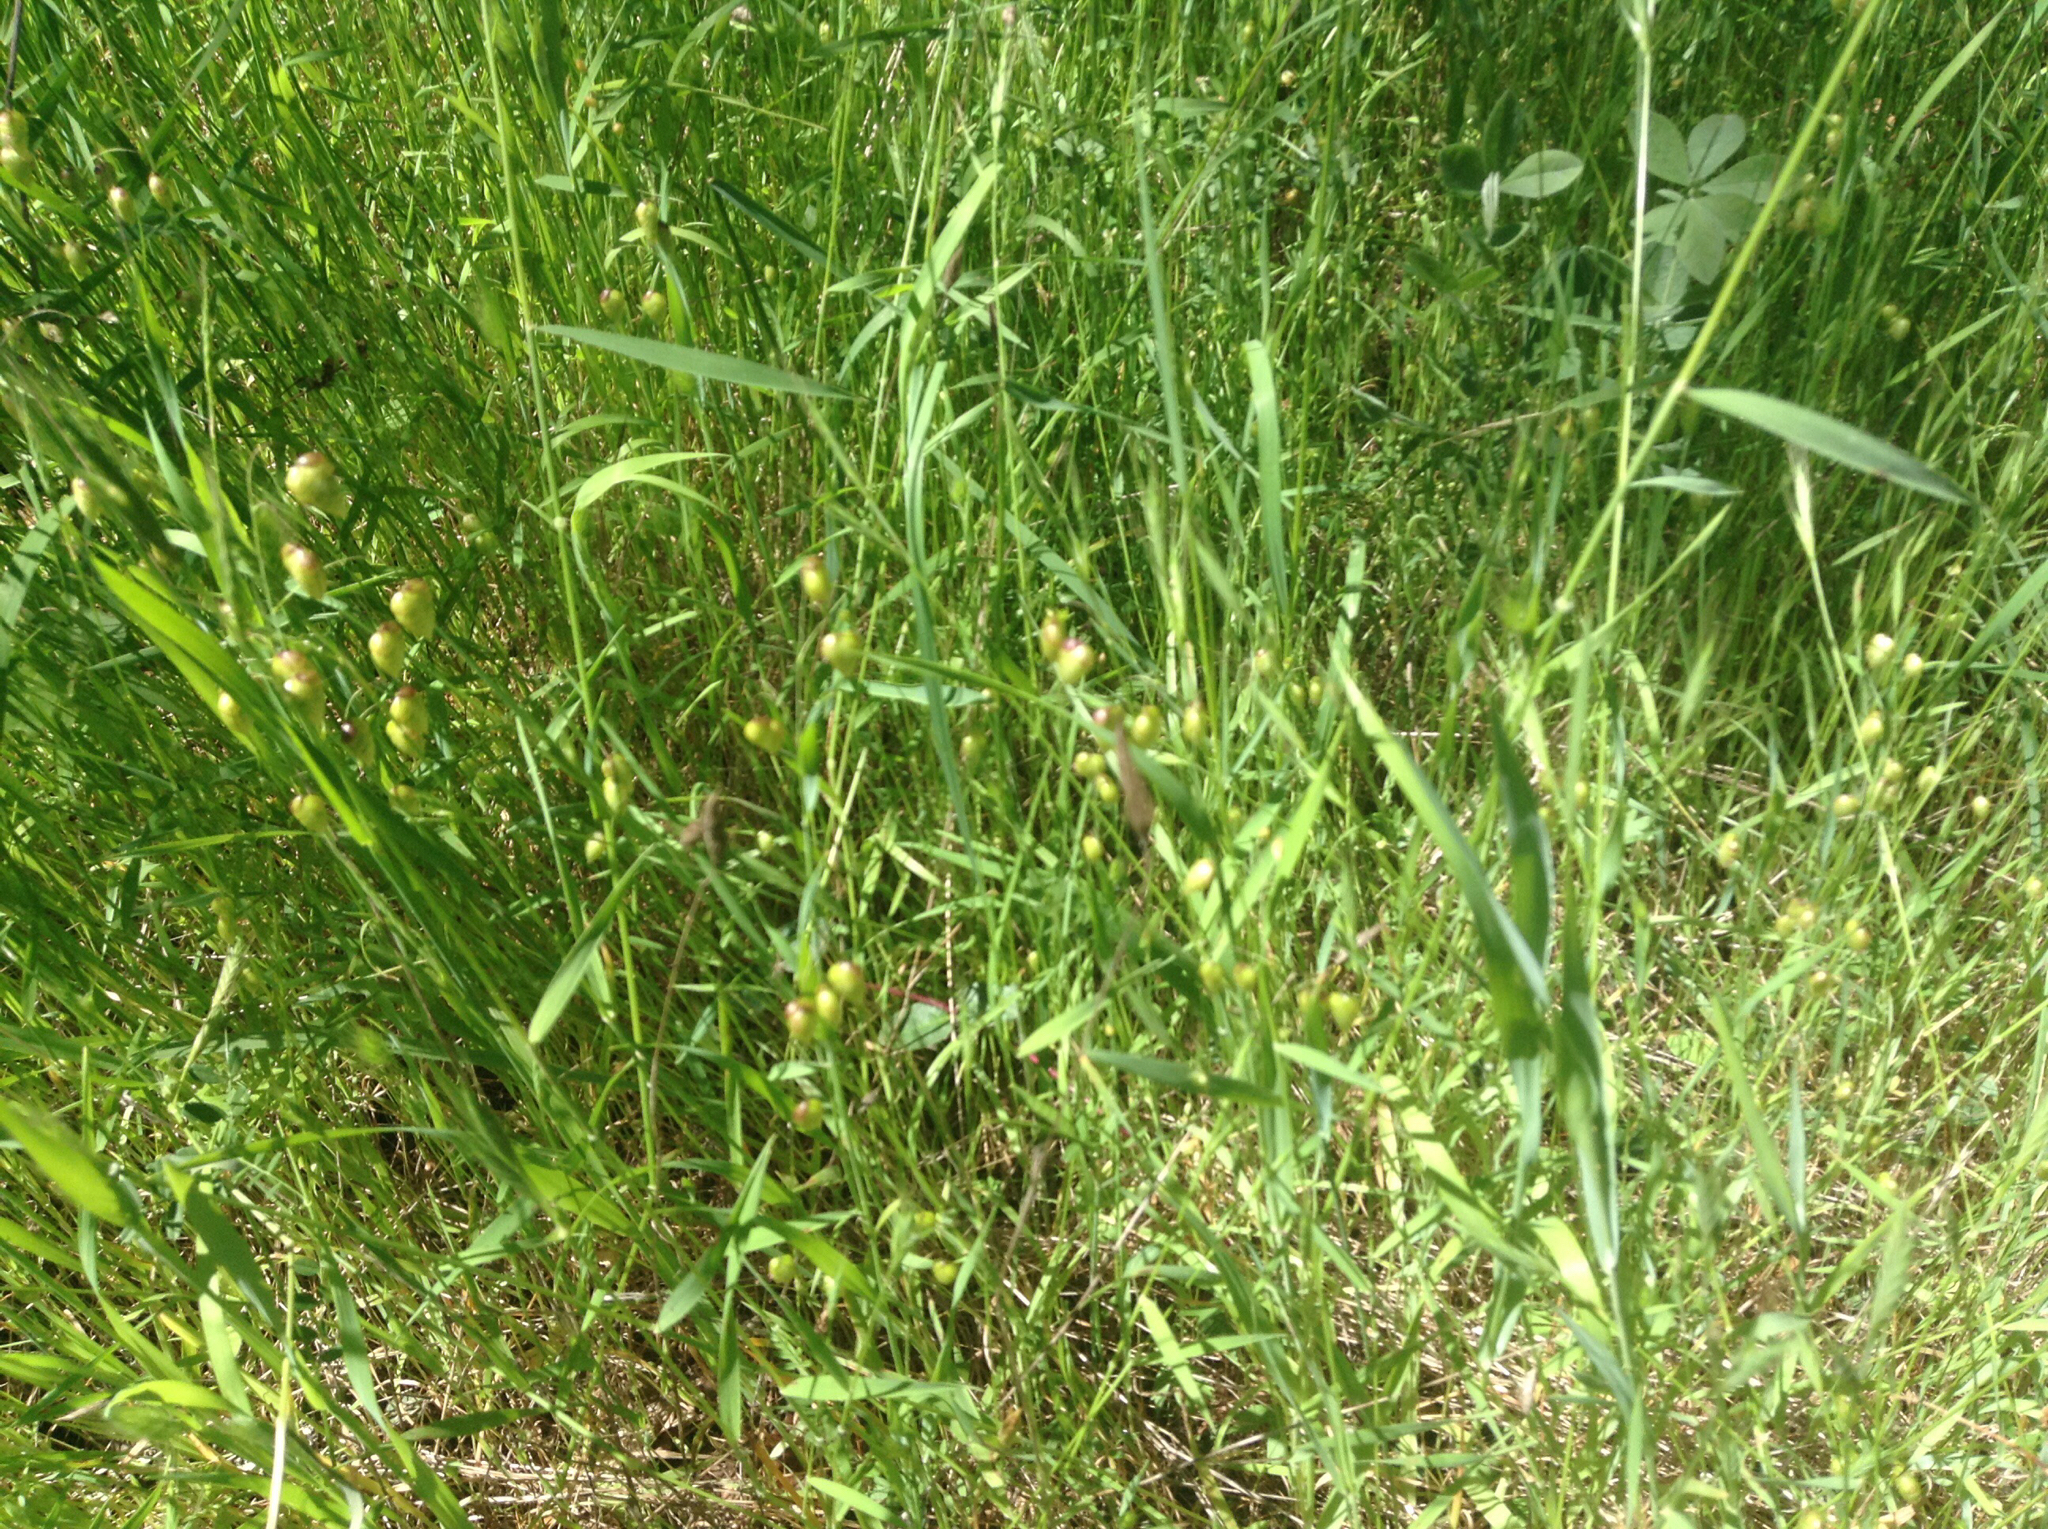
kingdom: Plantae
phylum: Tracheophyta
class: Liliopsida
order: Poales
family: Poaceae
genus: Briza
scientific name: Briza maxima
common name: Big quakinggrass
